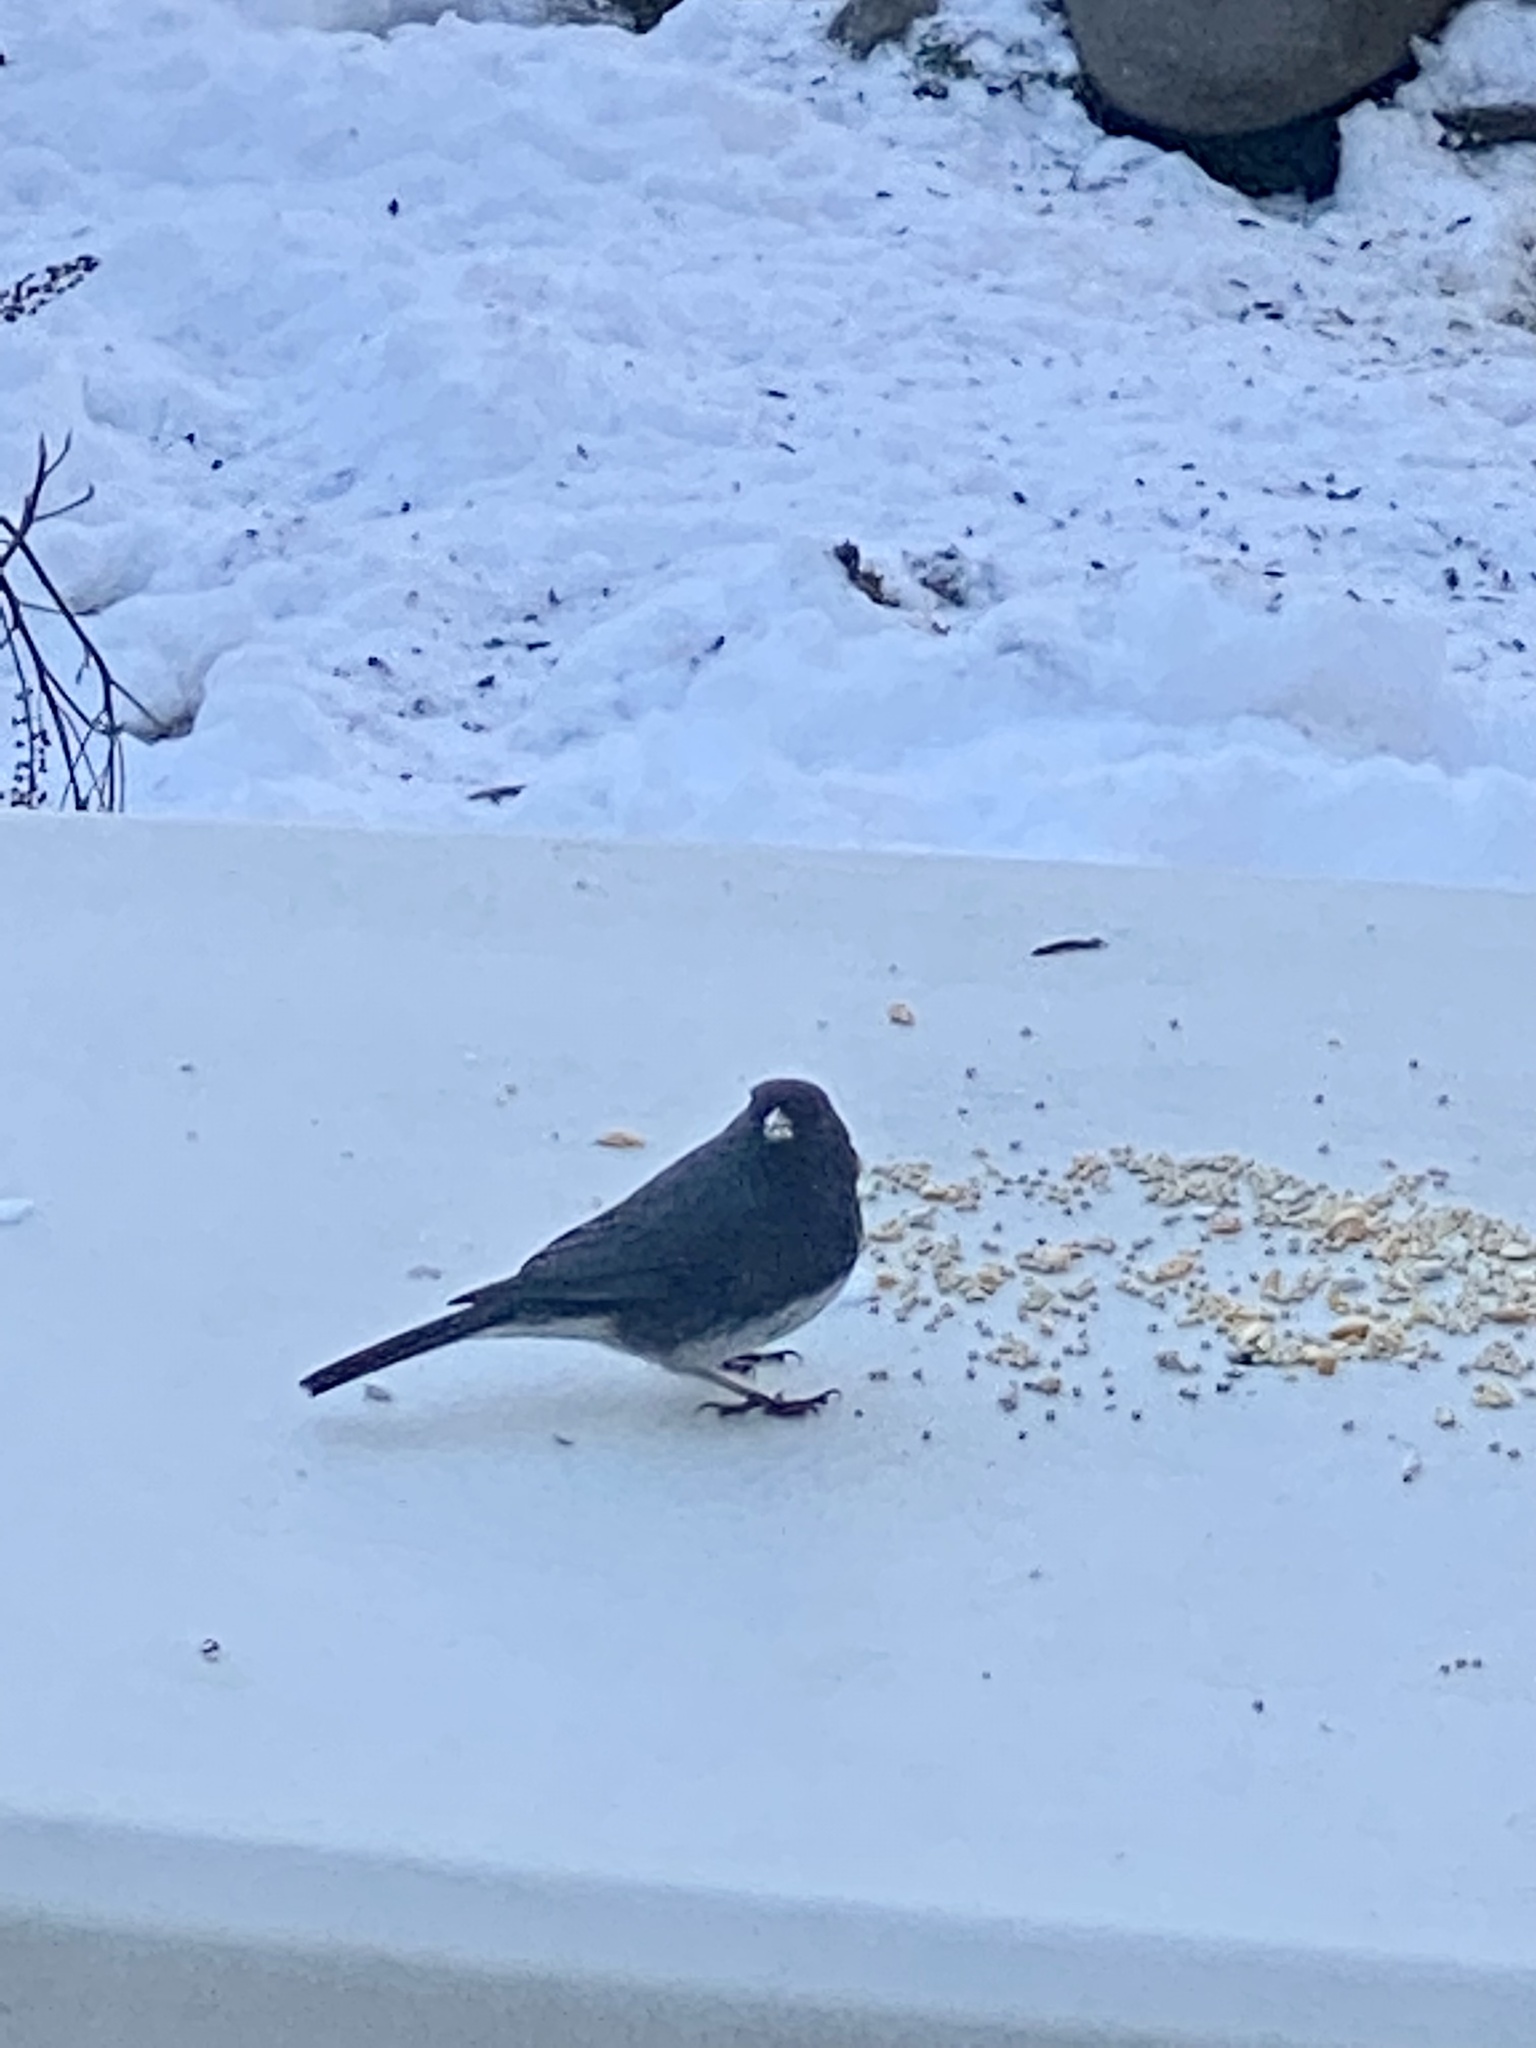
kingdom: Animalia
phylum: Chordata
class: Aves
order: Passeriformes
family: Passerellidae
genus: Junco
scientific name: Junco hyemalis
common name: Dark-eyed junco
